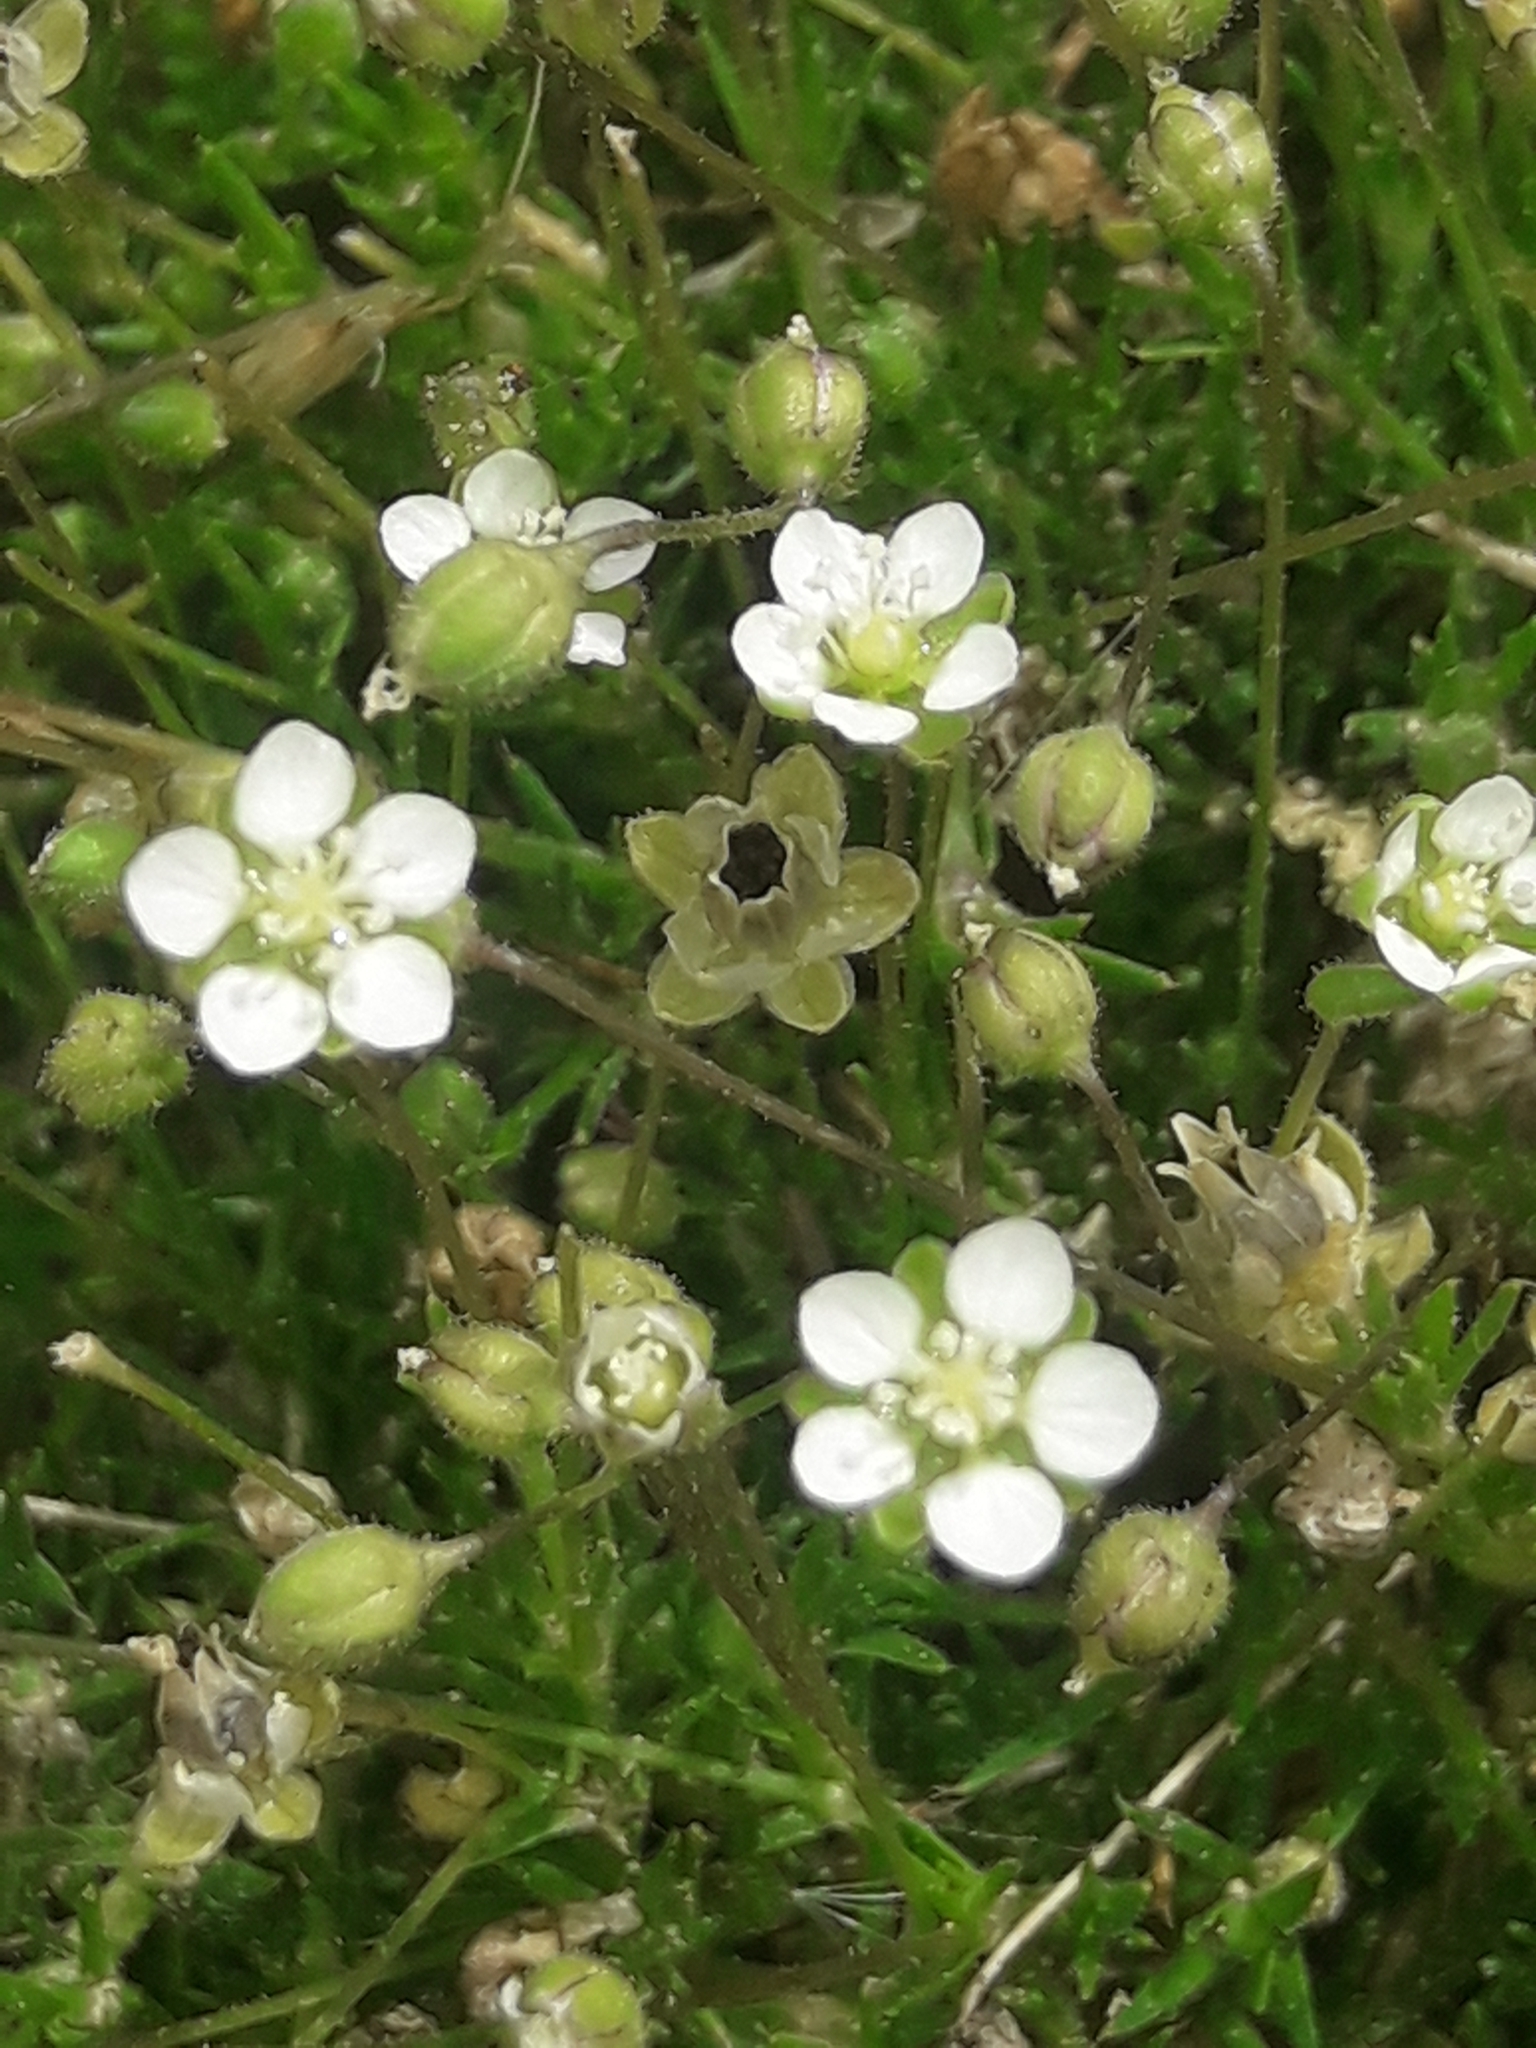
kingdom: Plantae
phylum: Tracheophyta
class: Magnoliopsida
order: Caryophyllales
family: Caryophyllaceae
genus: Spergula
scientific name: Spergula arvensis
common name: Corn spurrey
